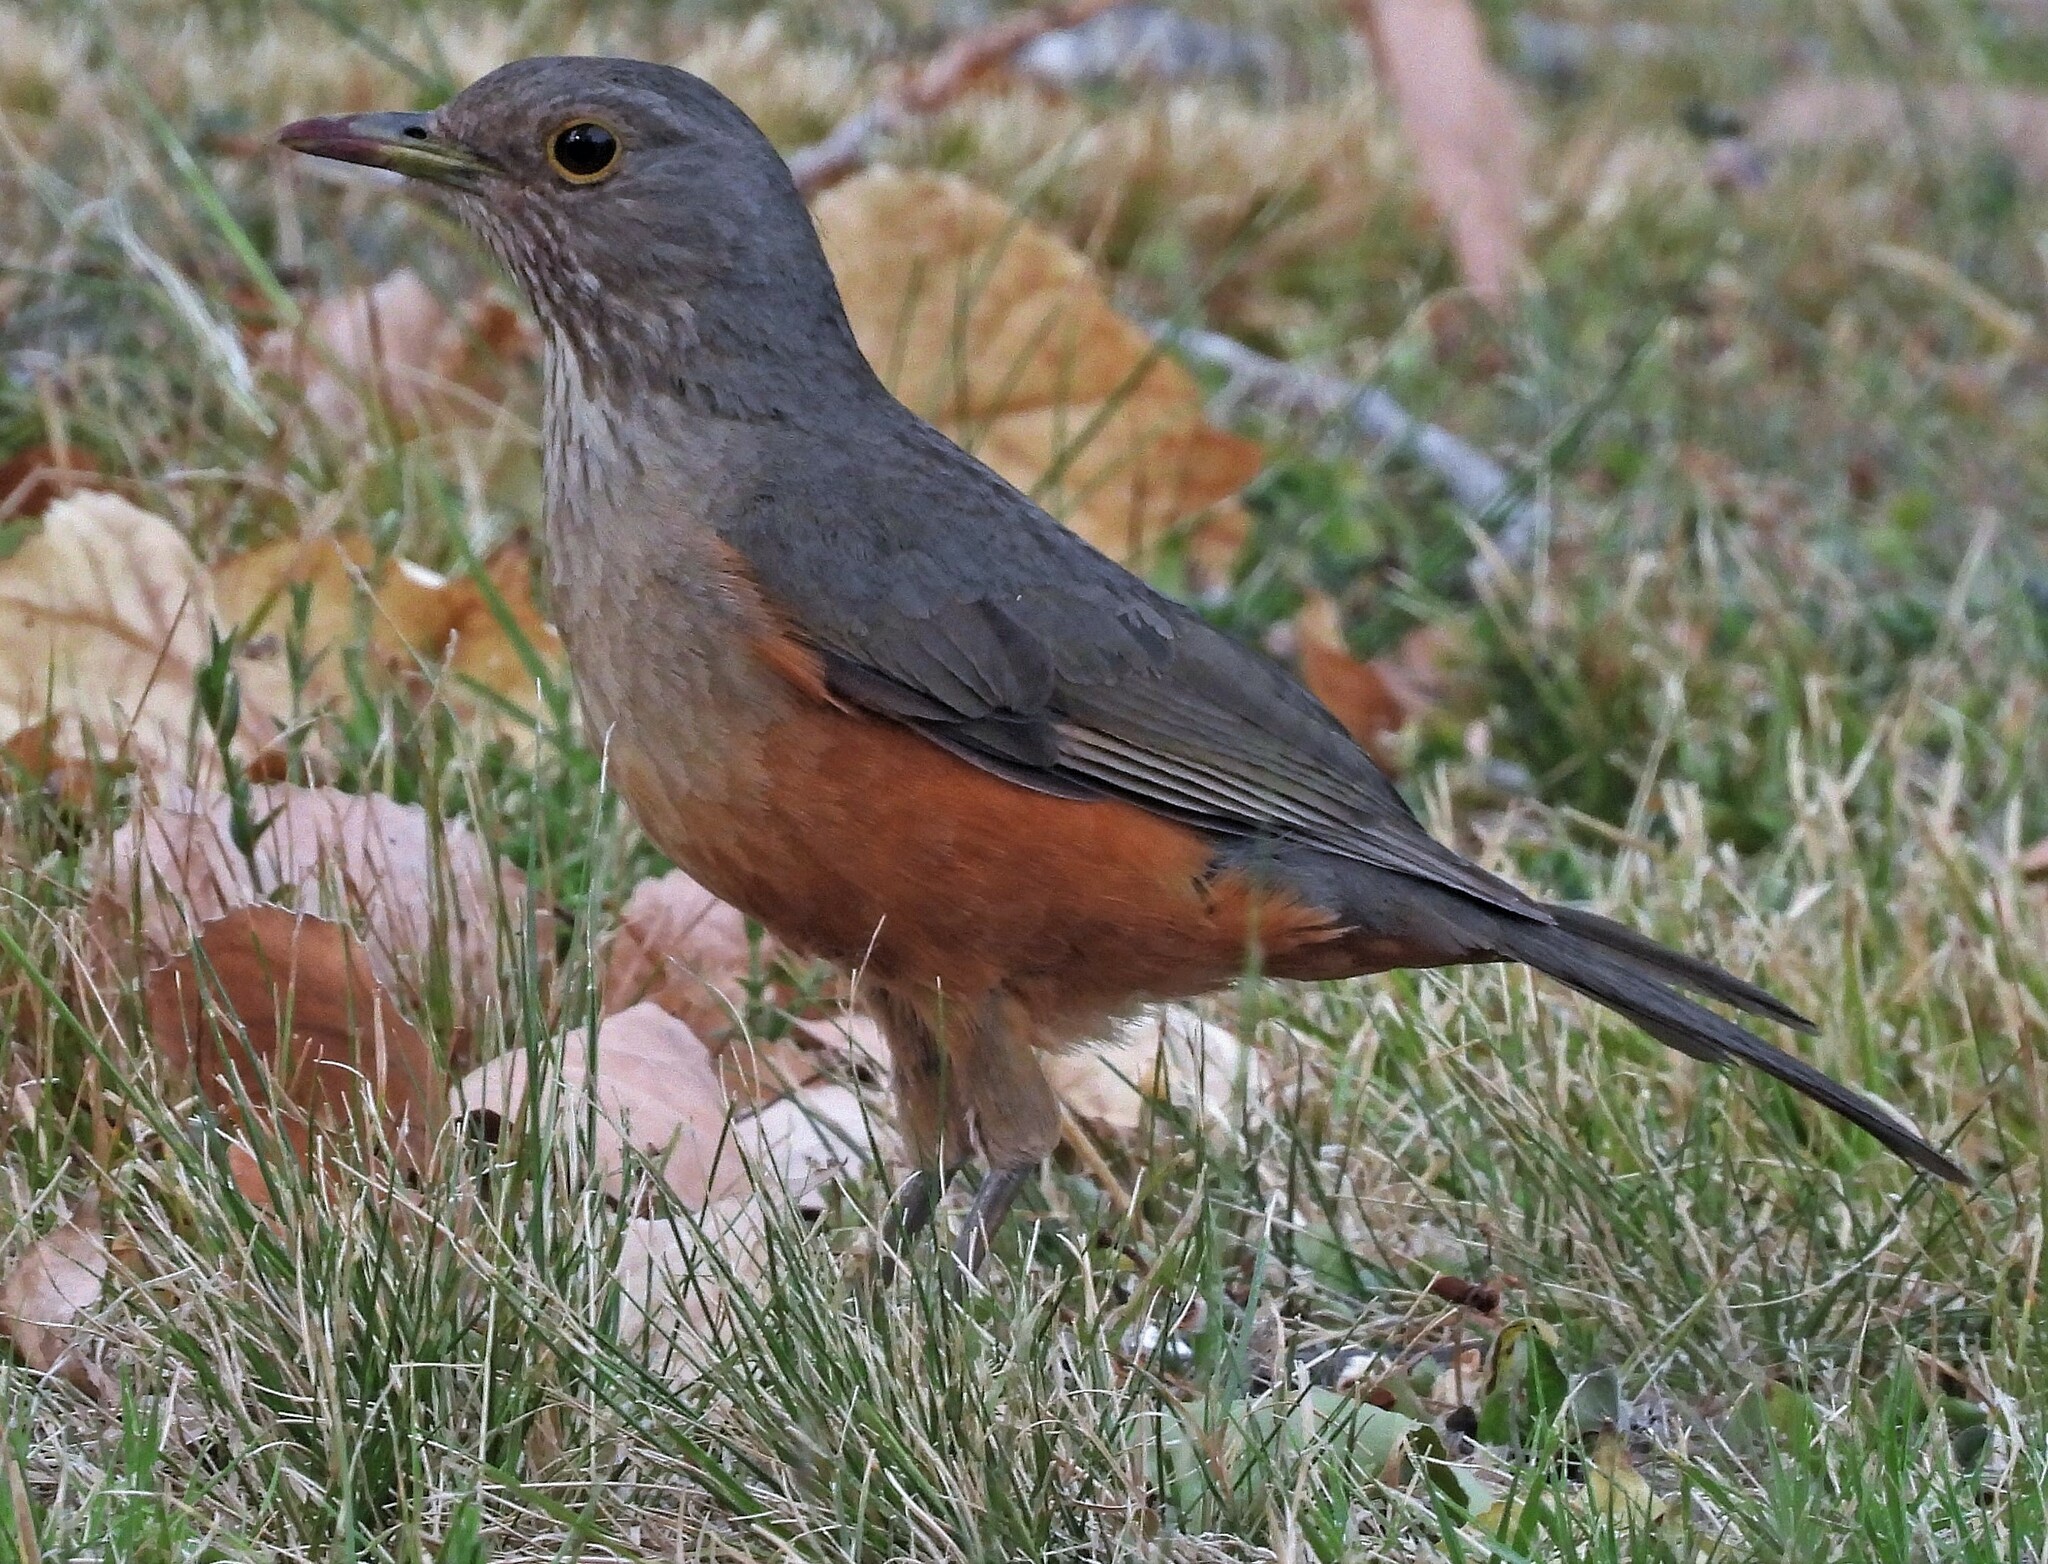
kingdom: Animalia
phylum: Chordata
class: Aves
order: Passeriformes
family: Turdidae
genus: Turdus
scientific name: Turdus rufiventris
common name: Rufous-bellied thrush
